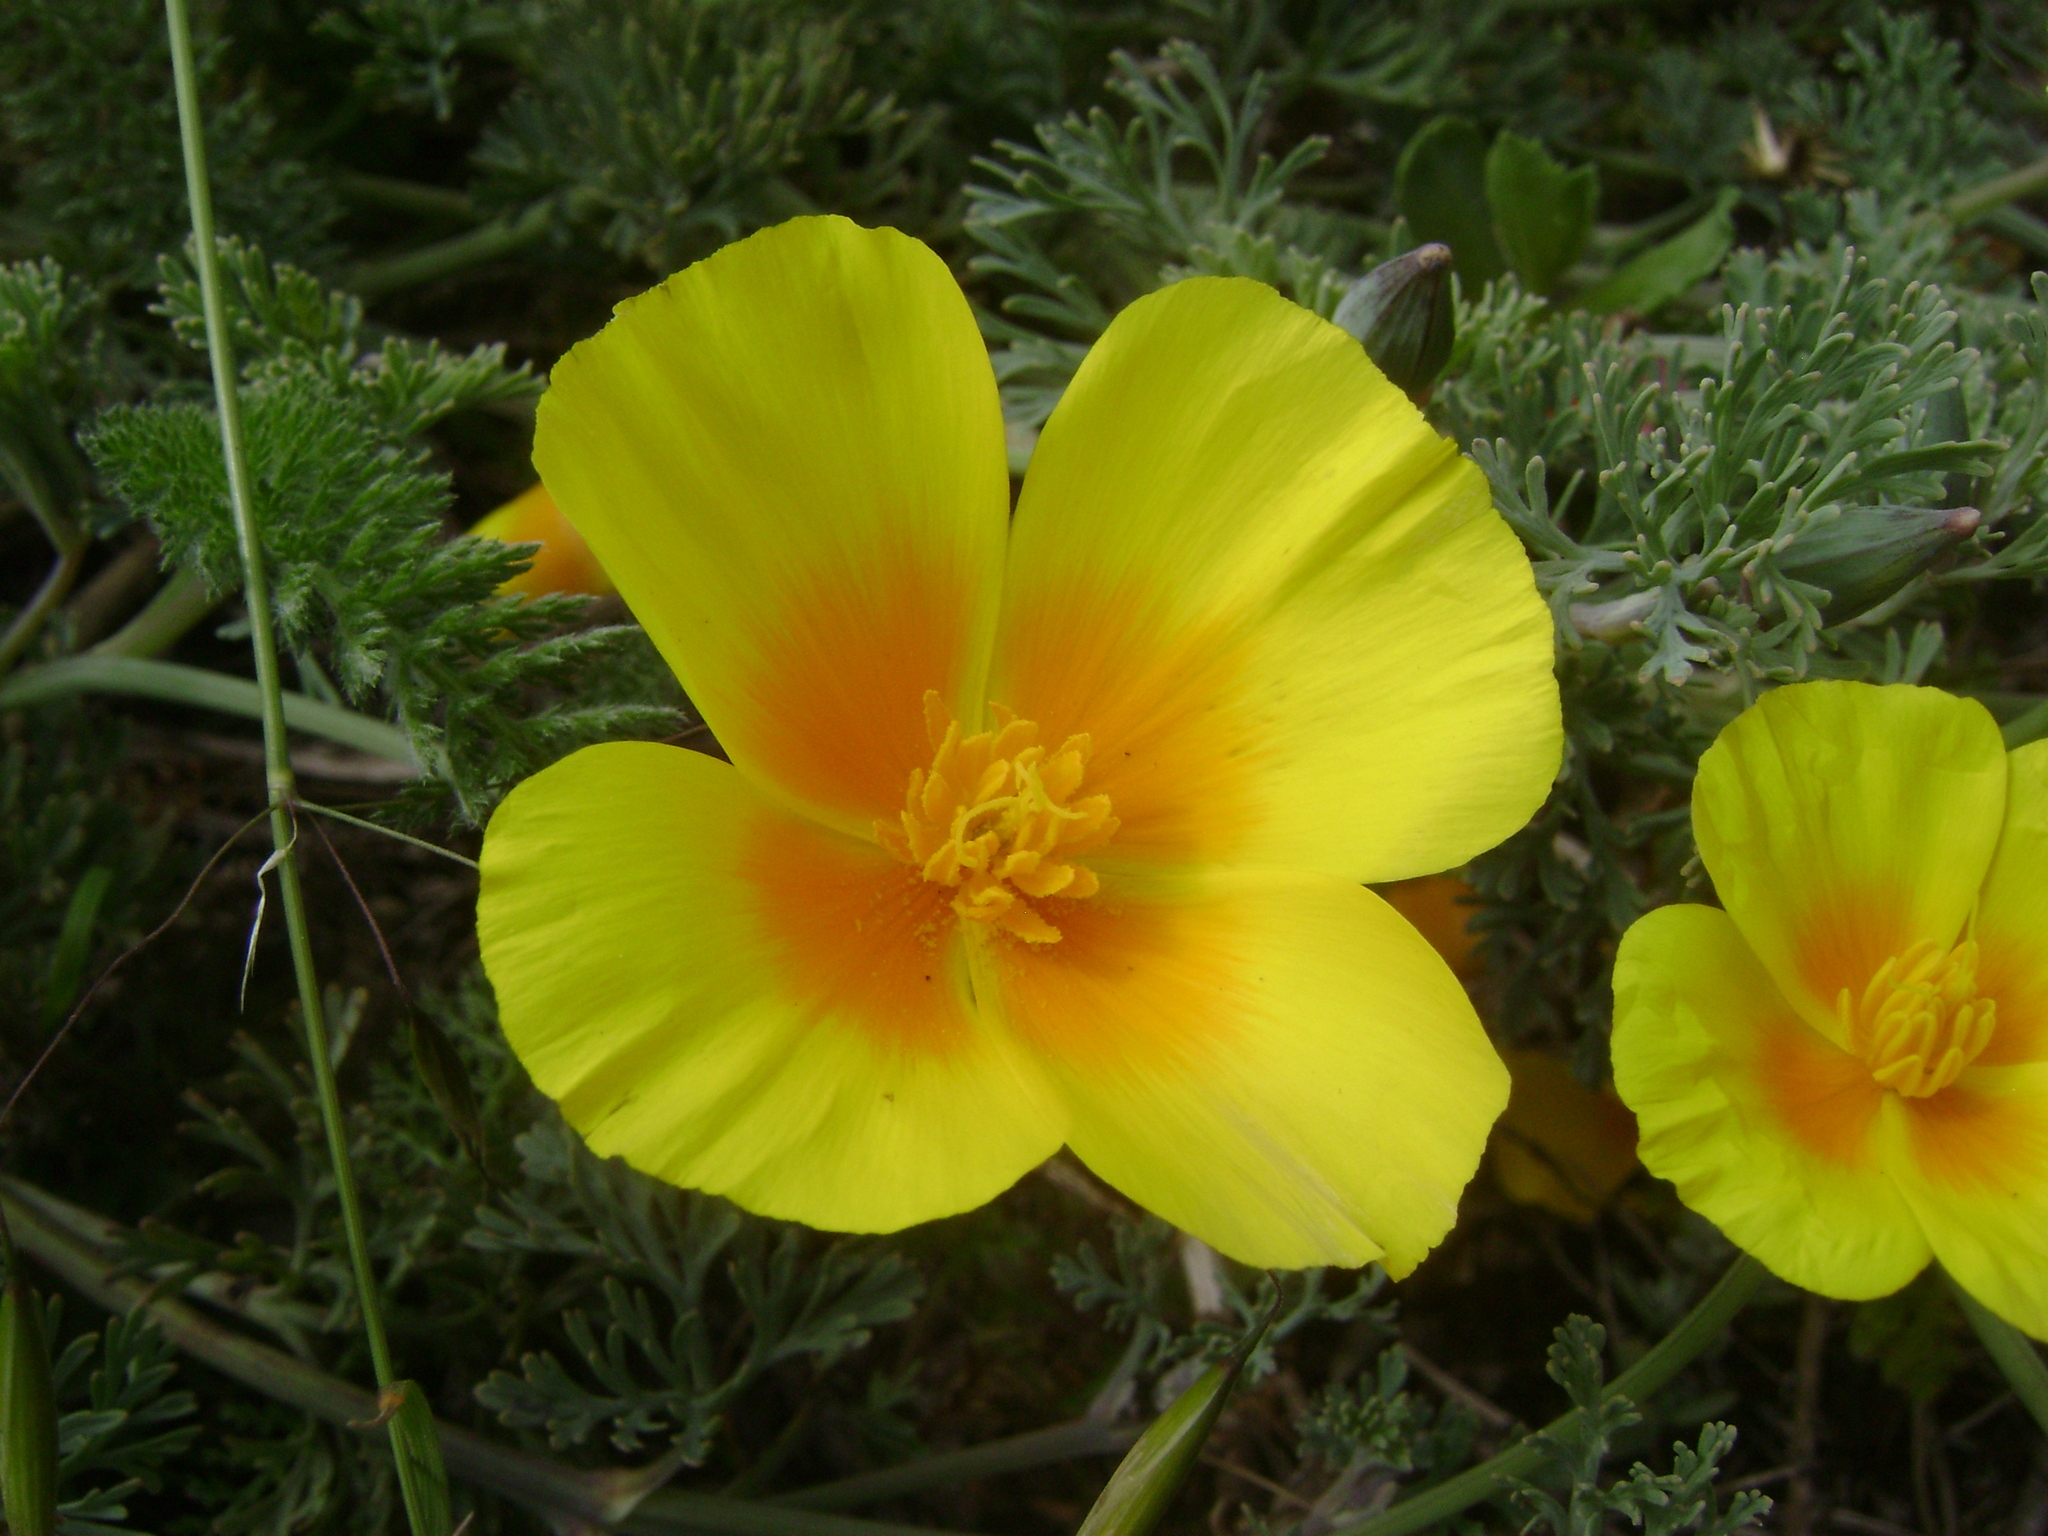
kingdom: Plantae
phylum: Tracheophyta
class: Magnoliopsida
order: Ranunculales
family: Papaveraceae
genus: Eschscholzia
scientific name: Eschscholzia californica
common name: California poppy
